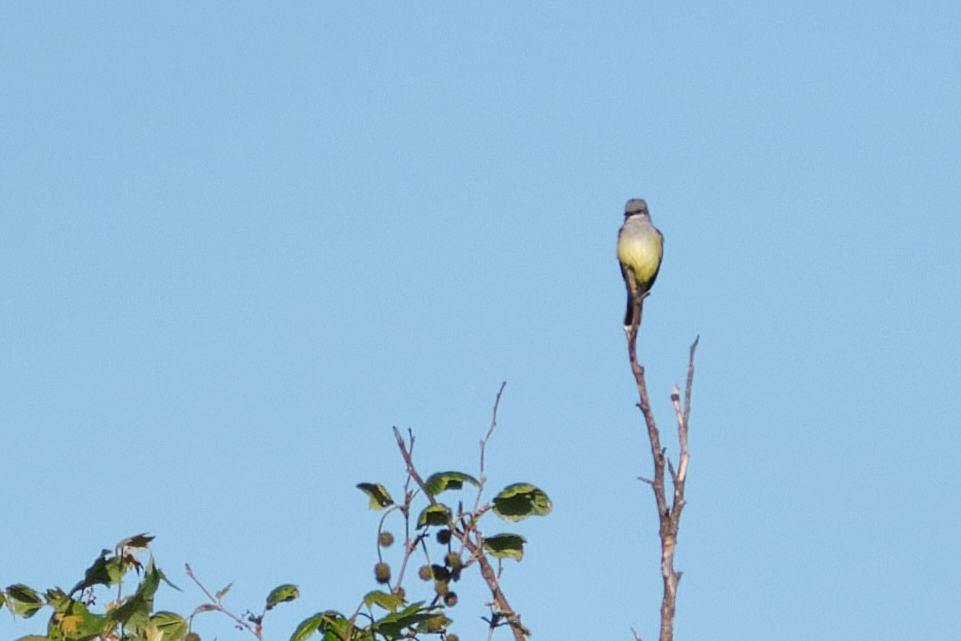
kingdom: Animalia
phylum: Chordata
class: Aves
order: Passeriformes
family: Tyrannidae
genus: Tyrannus
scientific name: Tyrannus verticalis
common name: Western kingbird
